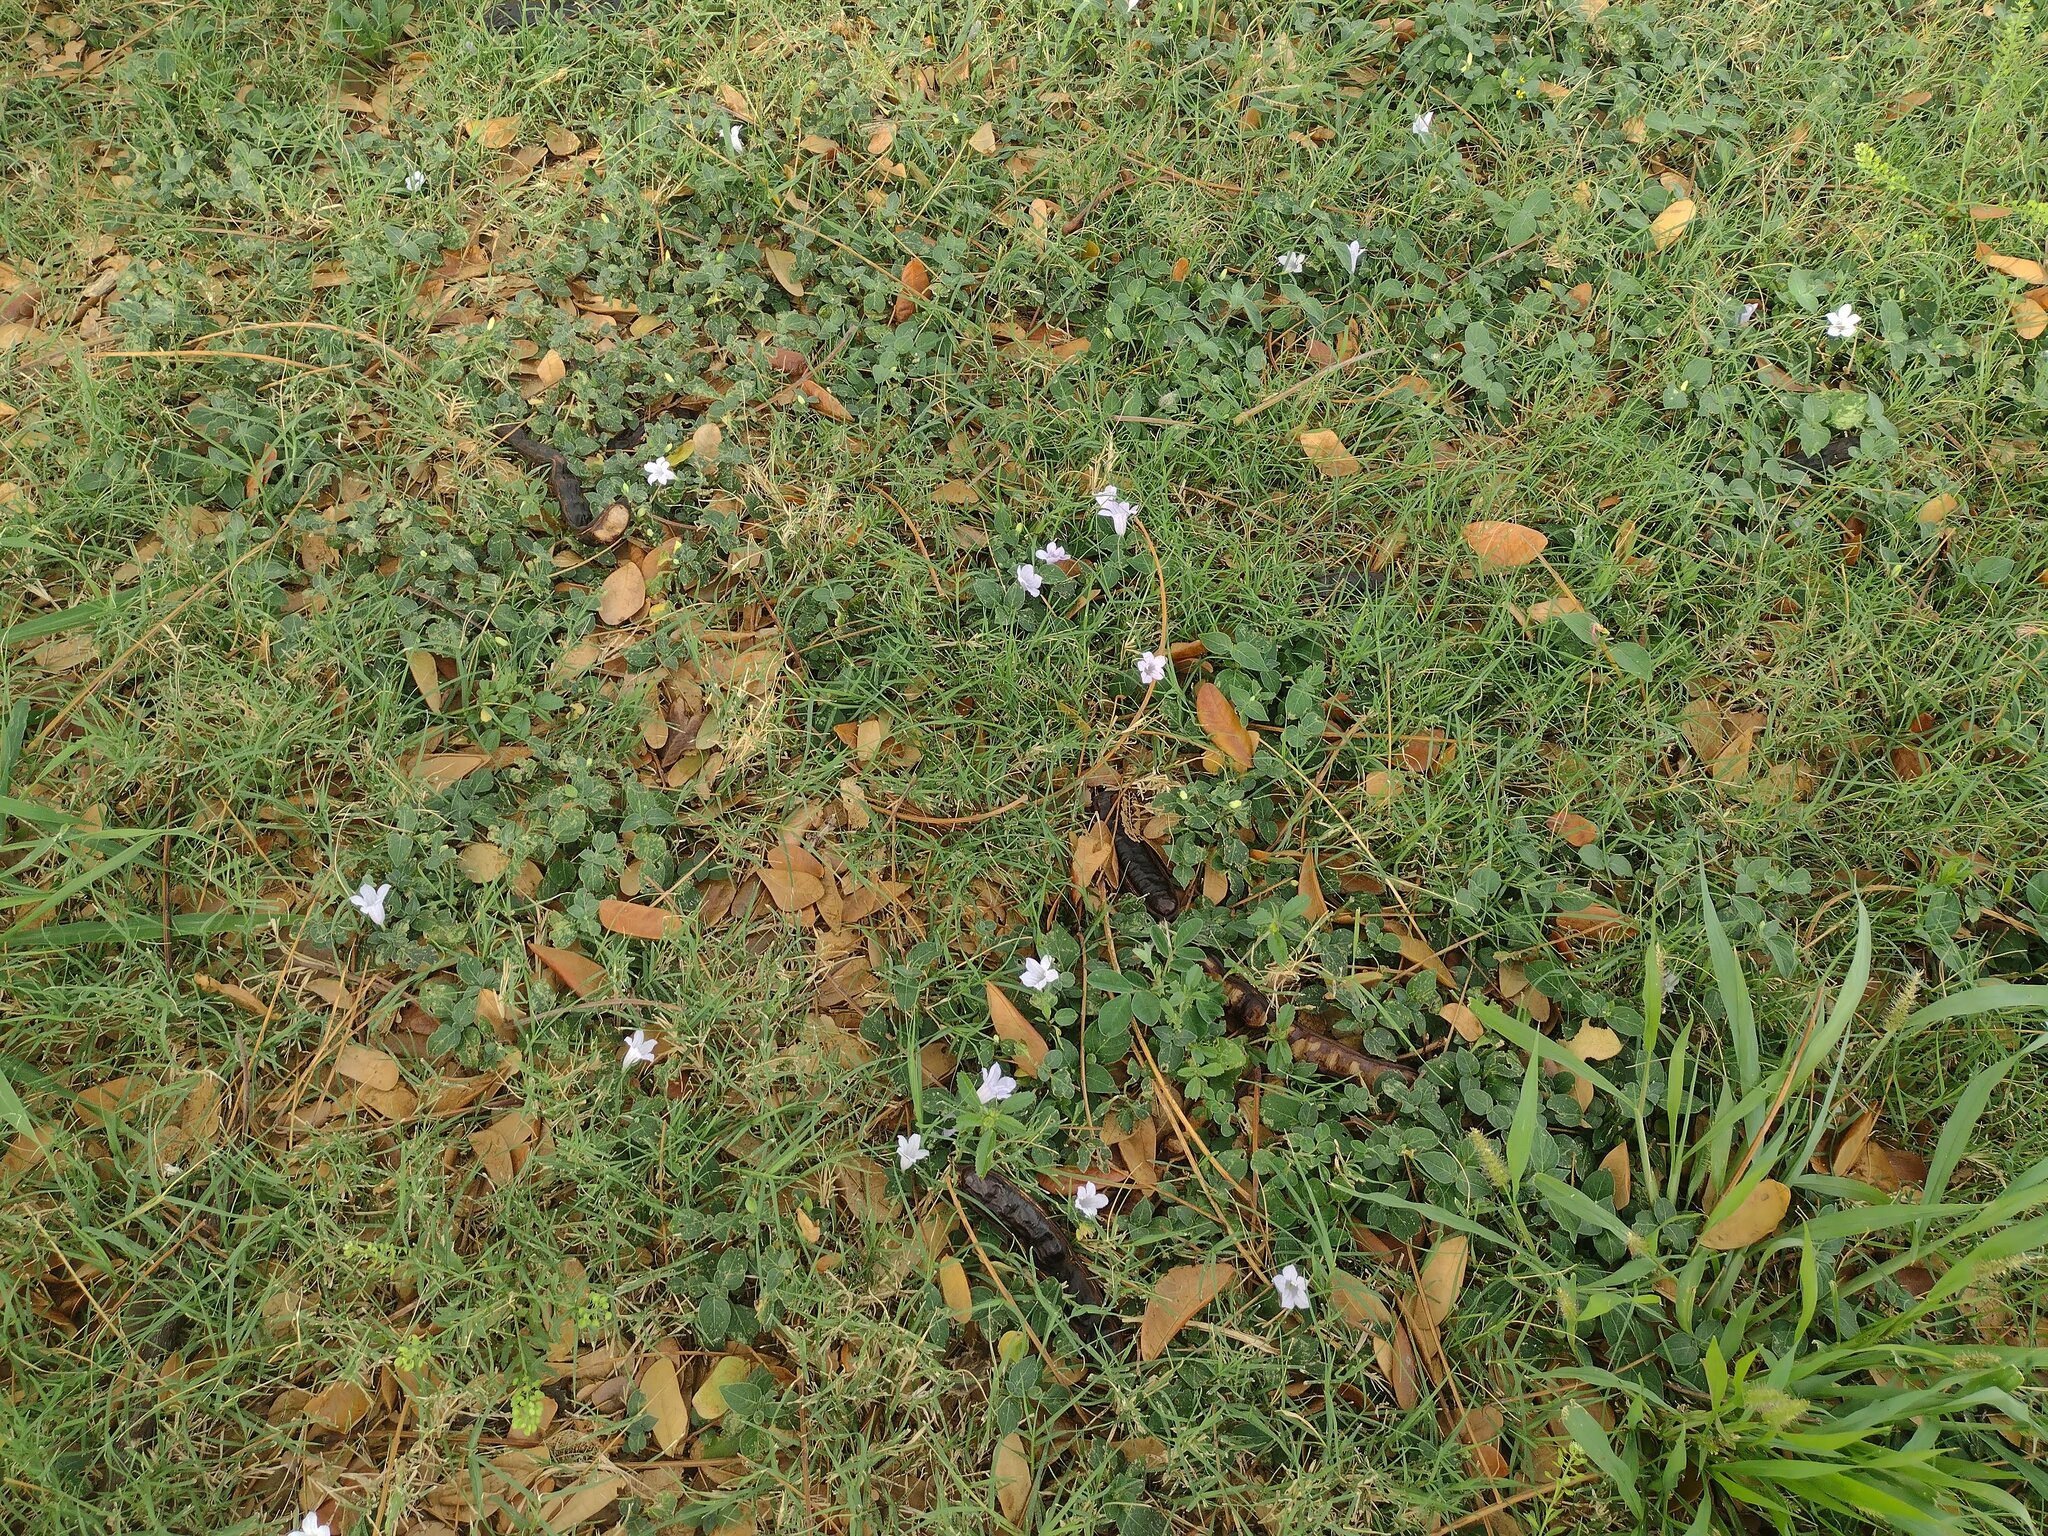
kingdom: Plantae
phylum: Tracheophyta
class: Magnoliopsida
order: Lamiales
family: Acanthaceae
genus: Ruellia
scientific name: Ruellia prostrata
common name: Prostrate wild petunia
